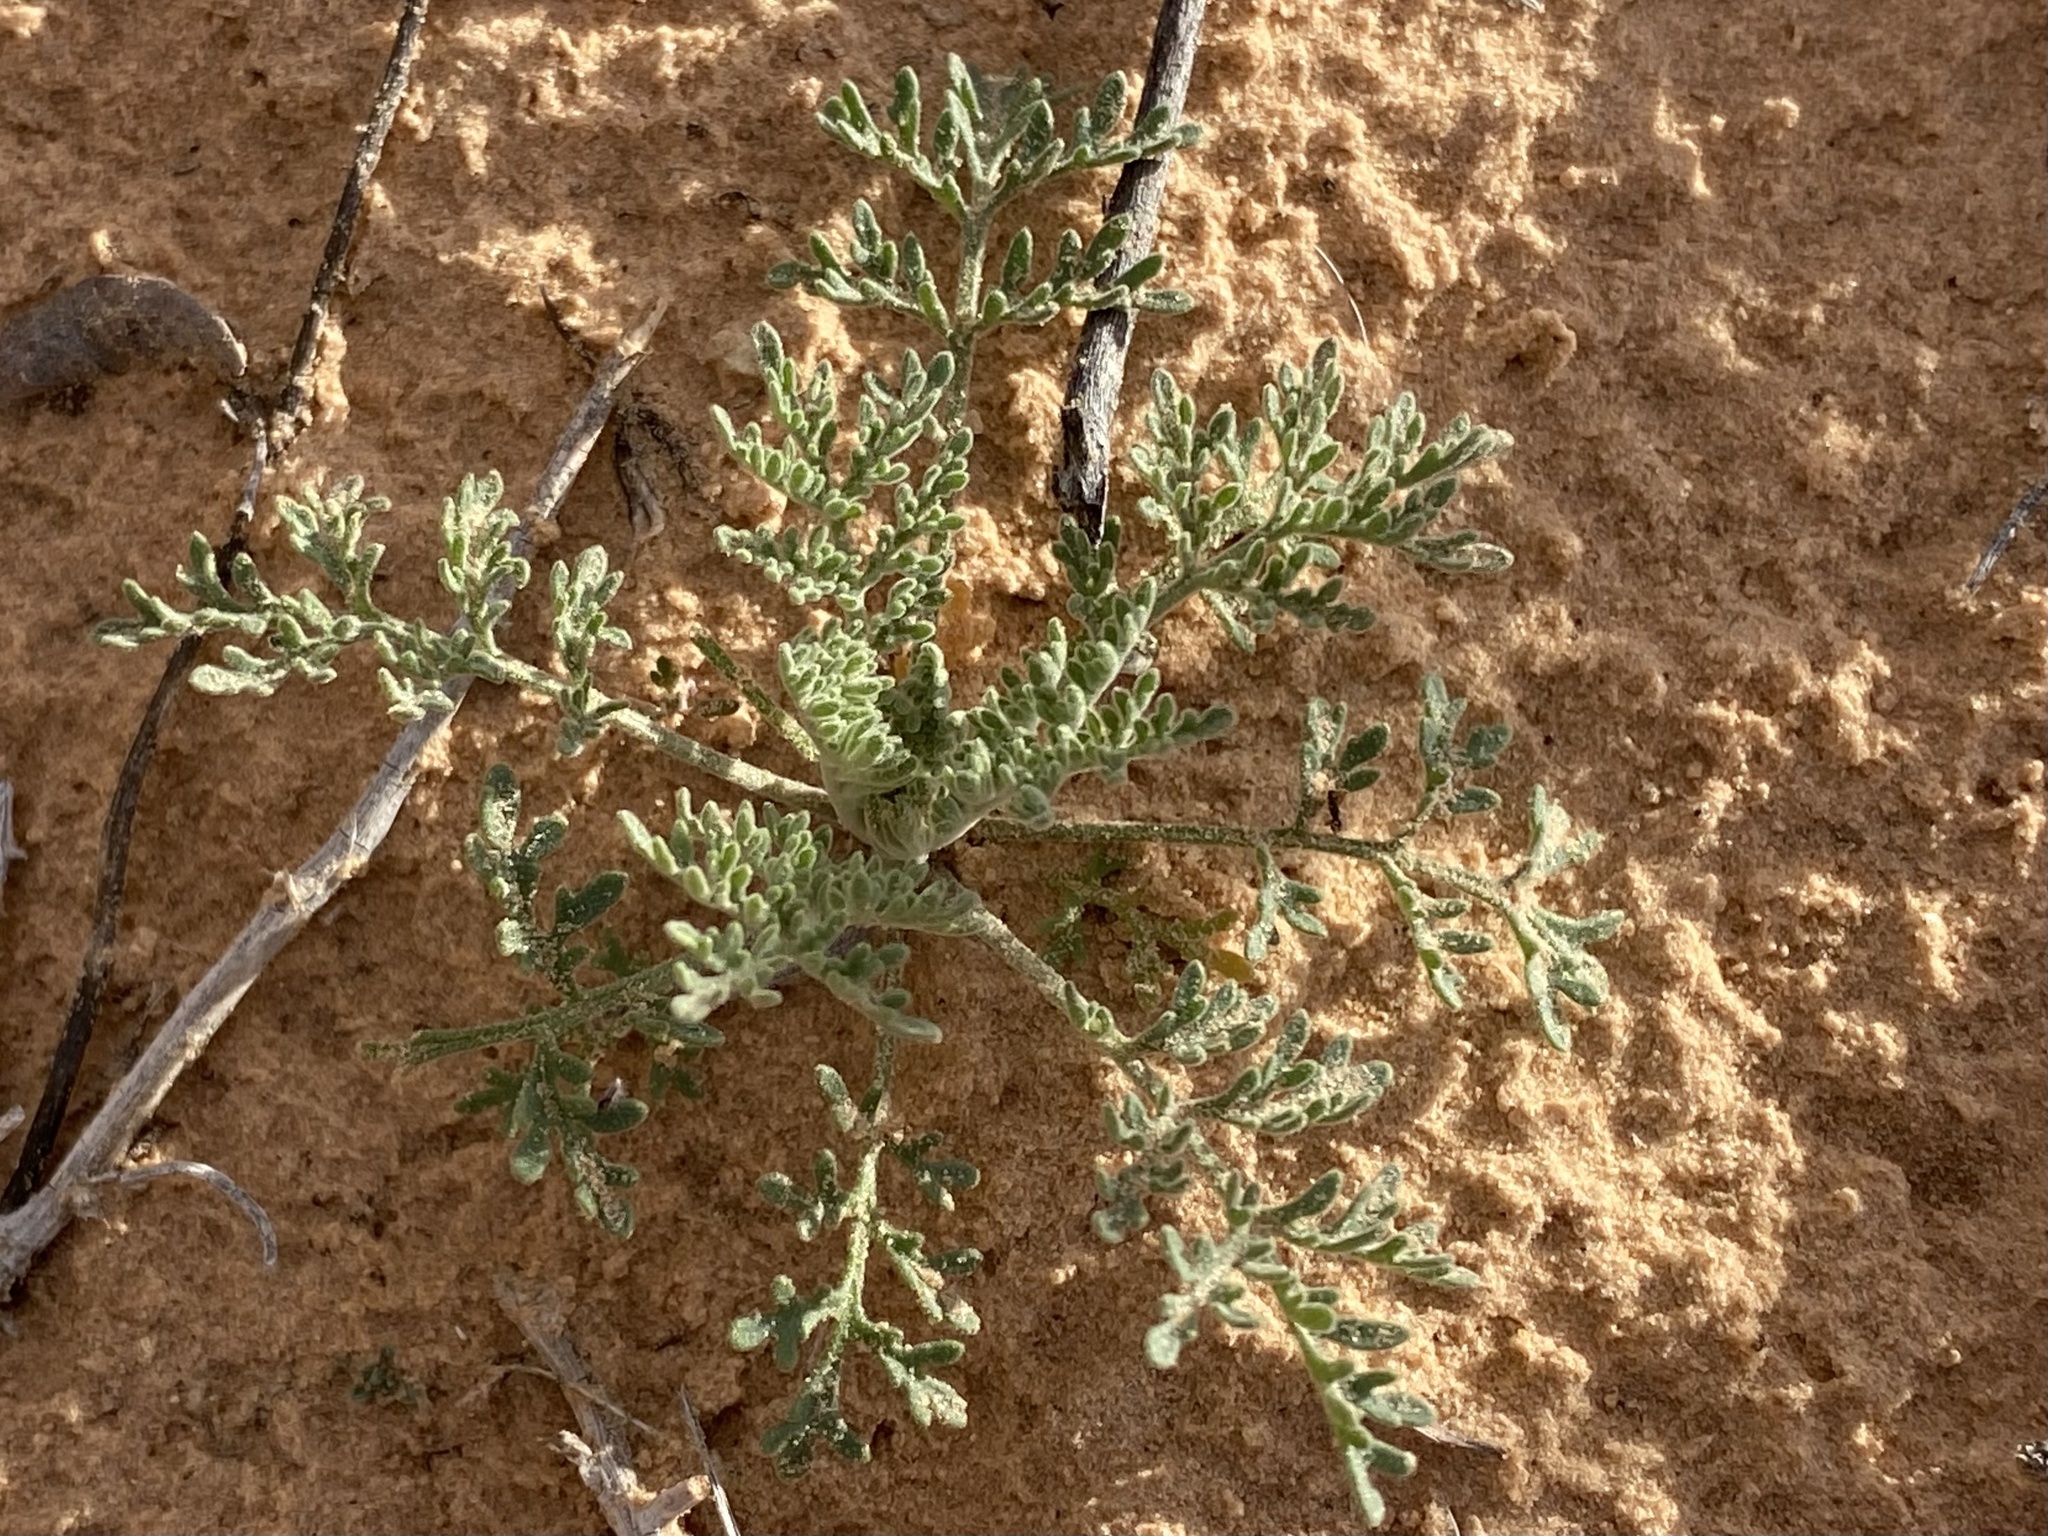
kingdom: Plantae
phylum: Tracheophyta
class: Magnoliopsida
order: Brassicales
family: Brassicaceae
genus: Descurainia
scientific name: Descurainia pinnata
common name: Western tansy mustard
